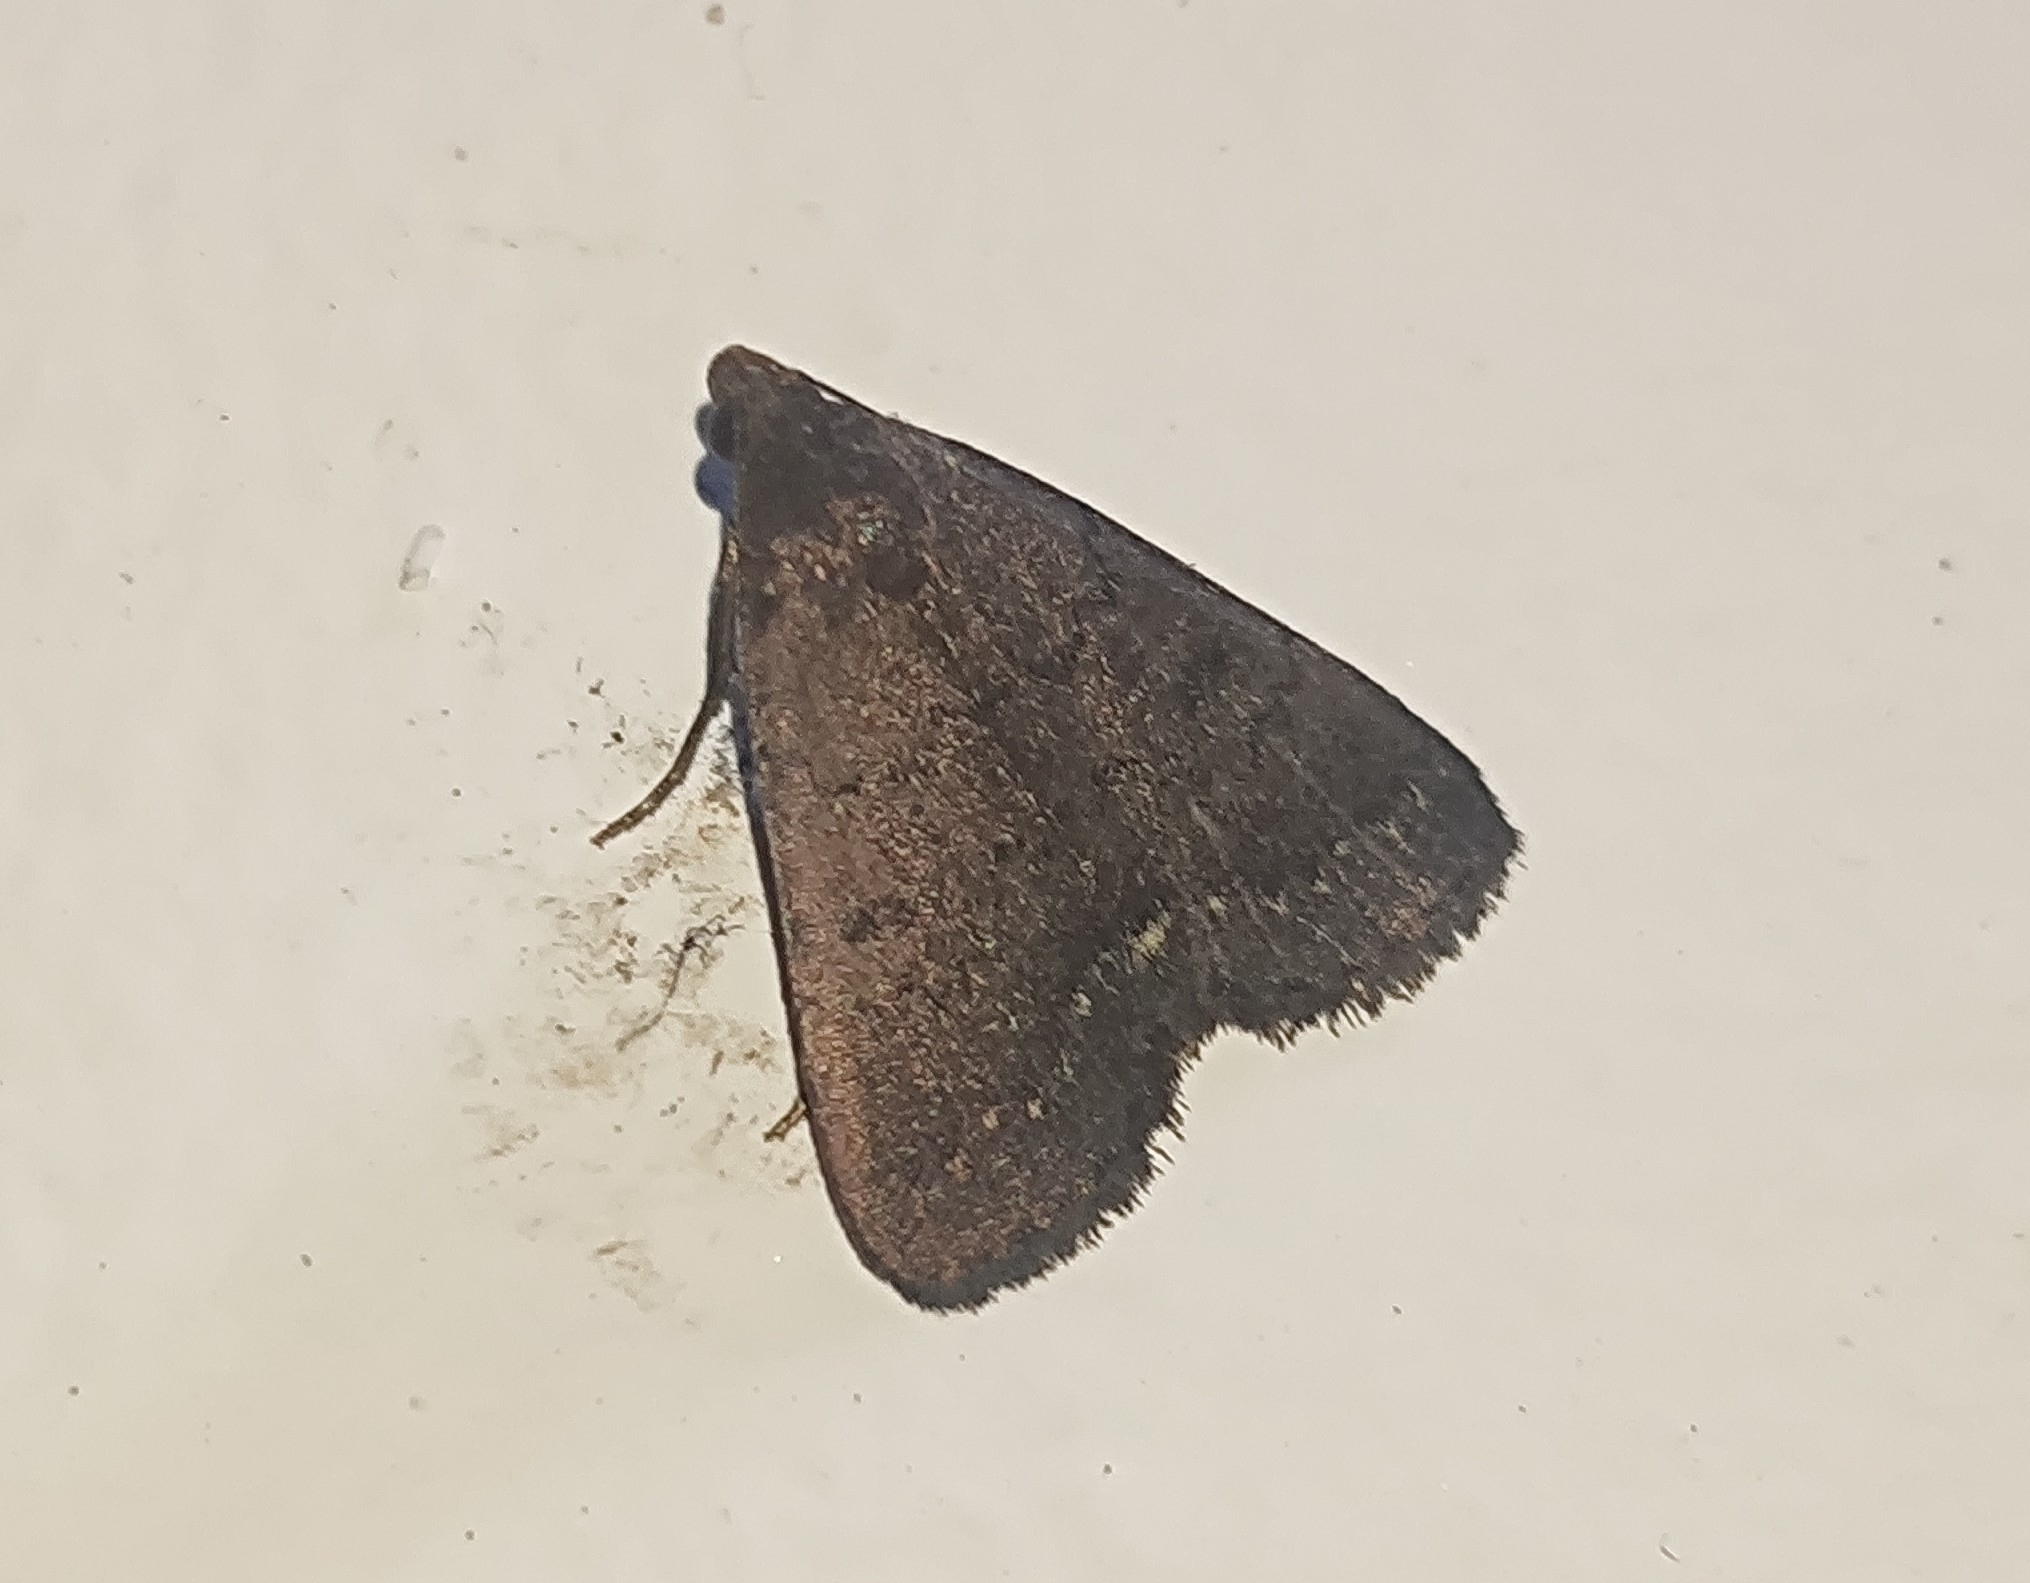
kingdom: Animalia
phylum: Arthropoda
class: Insecta
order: Lepidoptera
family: Erebidae
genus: Nodaria
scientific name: Nodaria externalis
